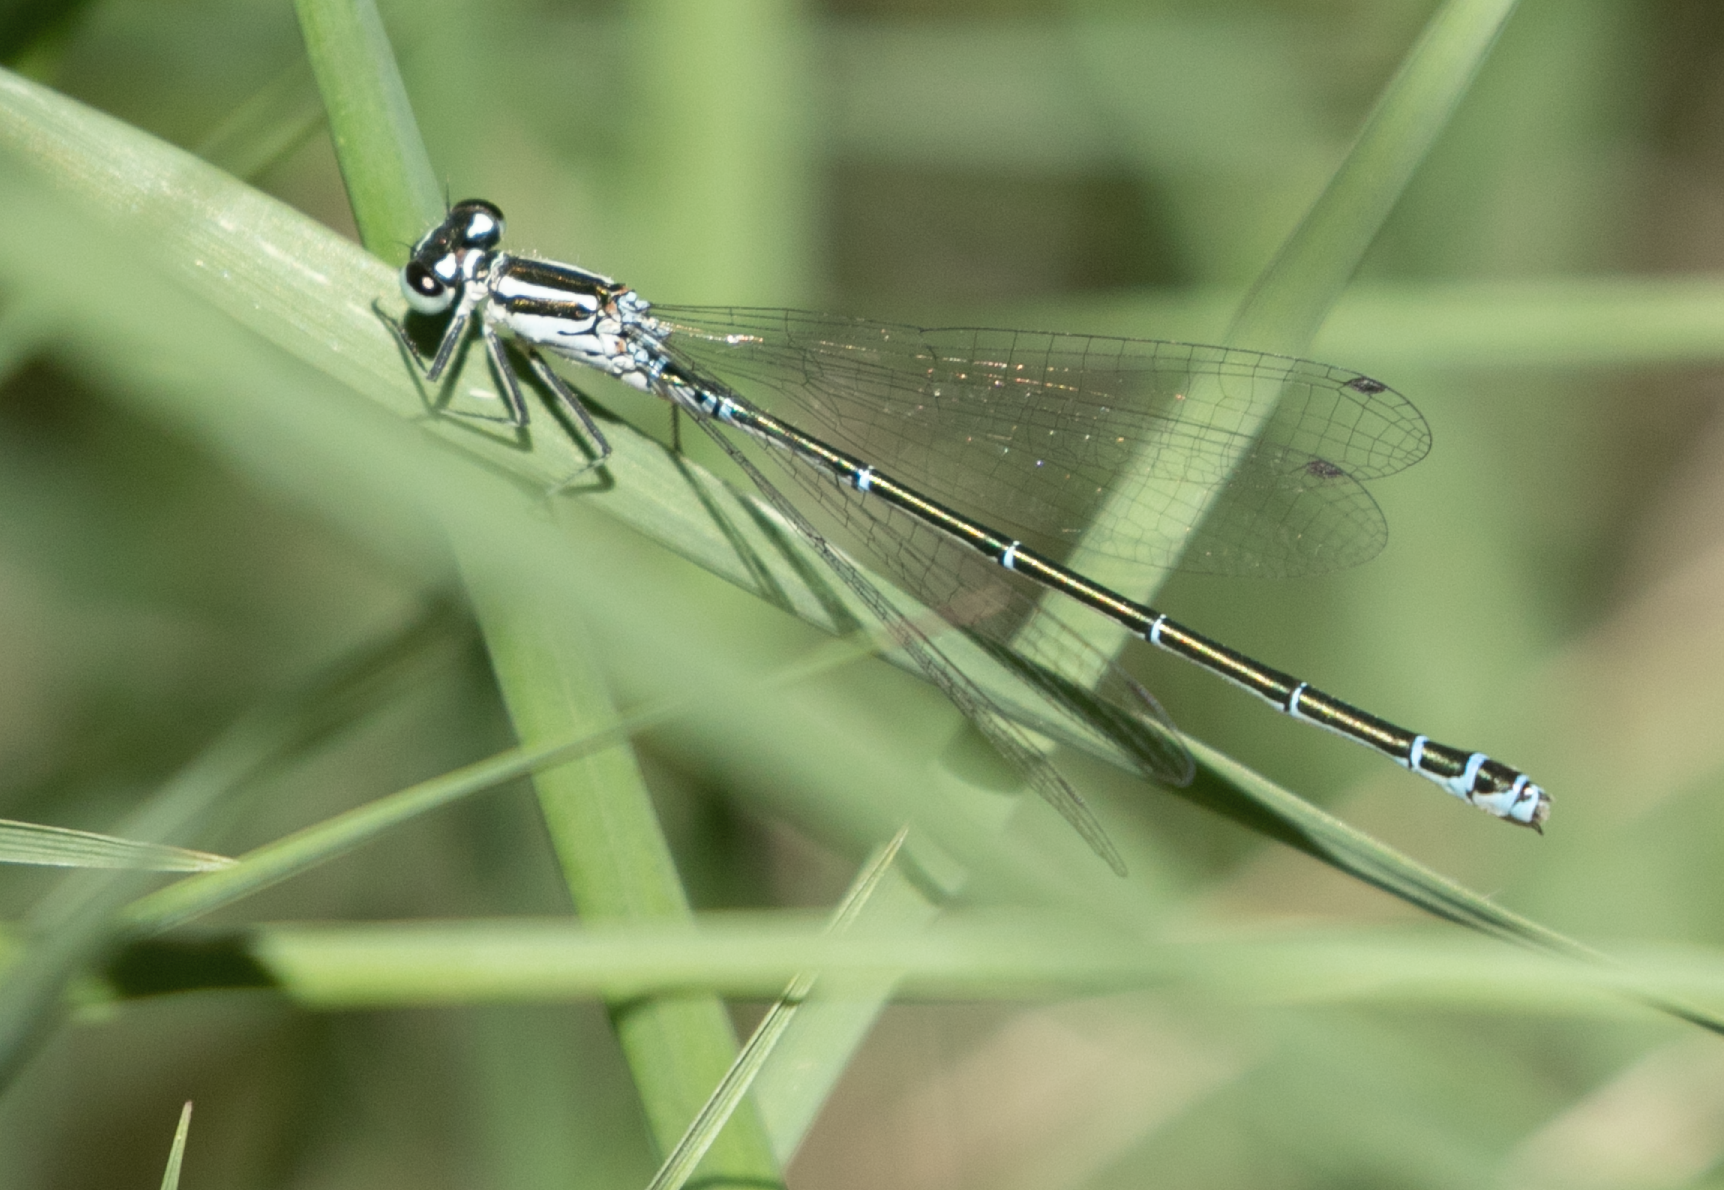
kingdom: Animalia
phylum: Arthropoda
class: Insecta
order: Odonata
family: Coenagrionidae
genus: Coenagrion
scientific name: Coenagrion puella
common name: Azure damselfly
